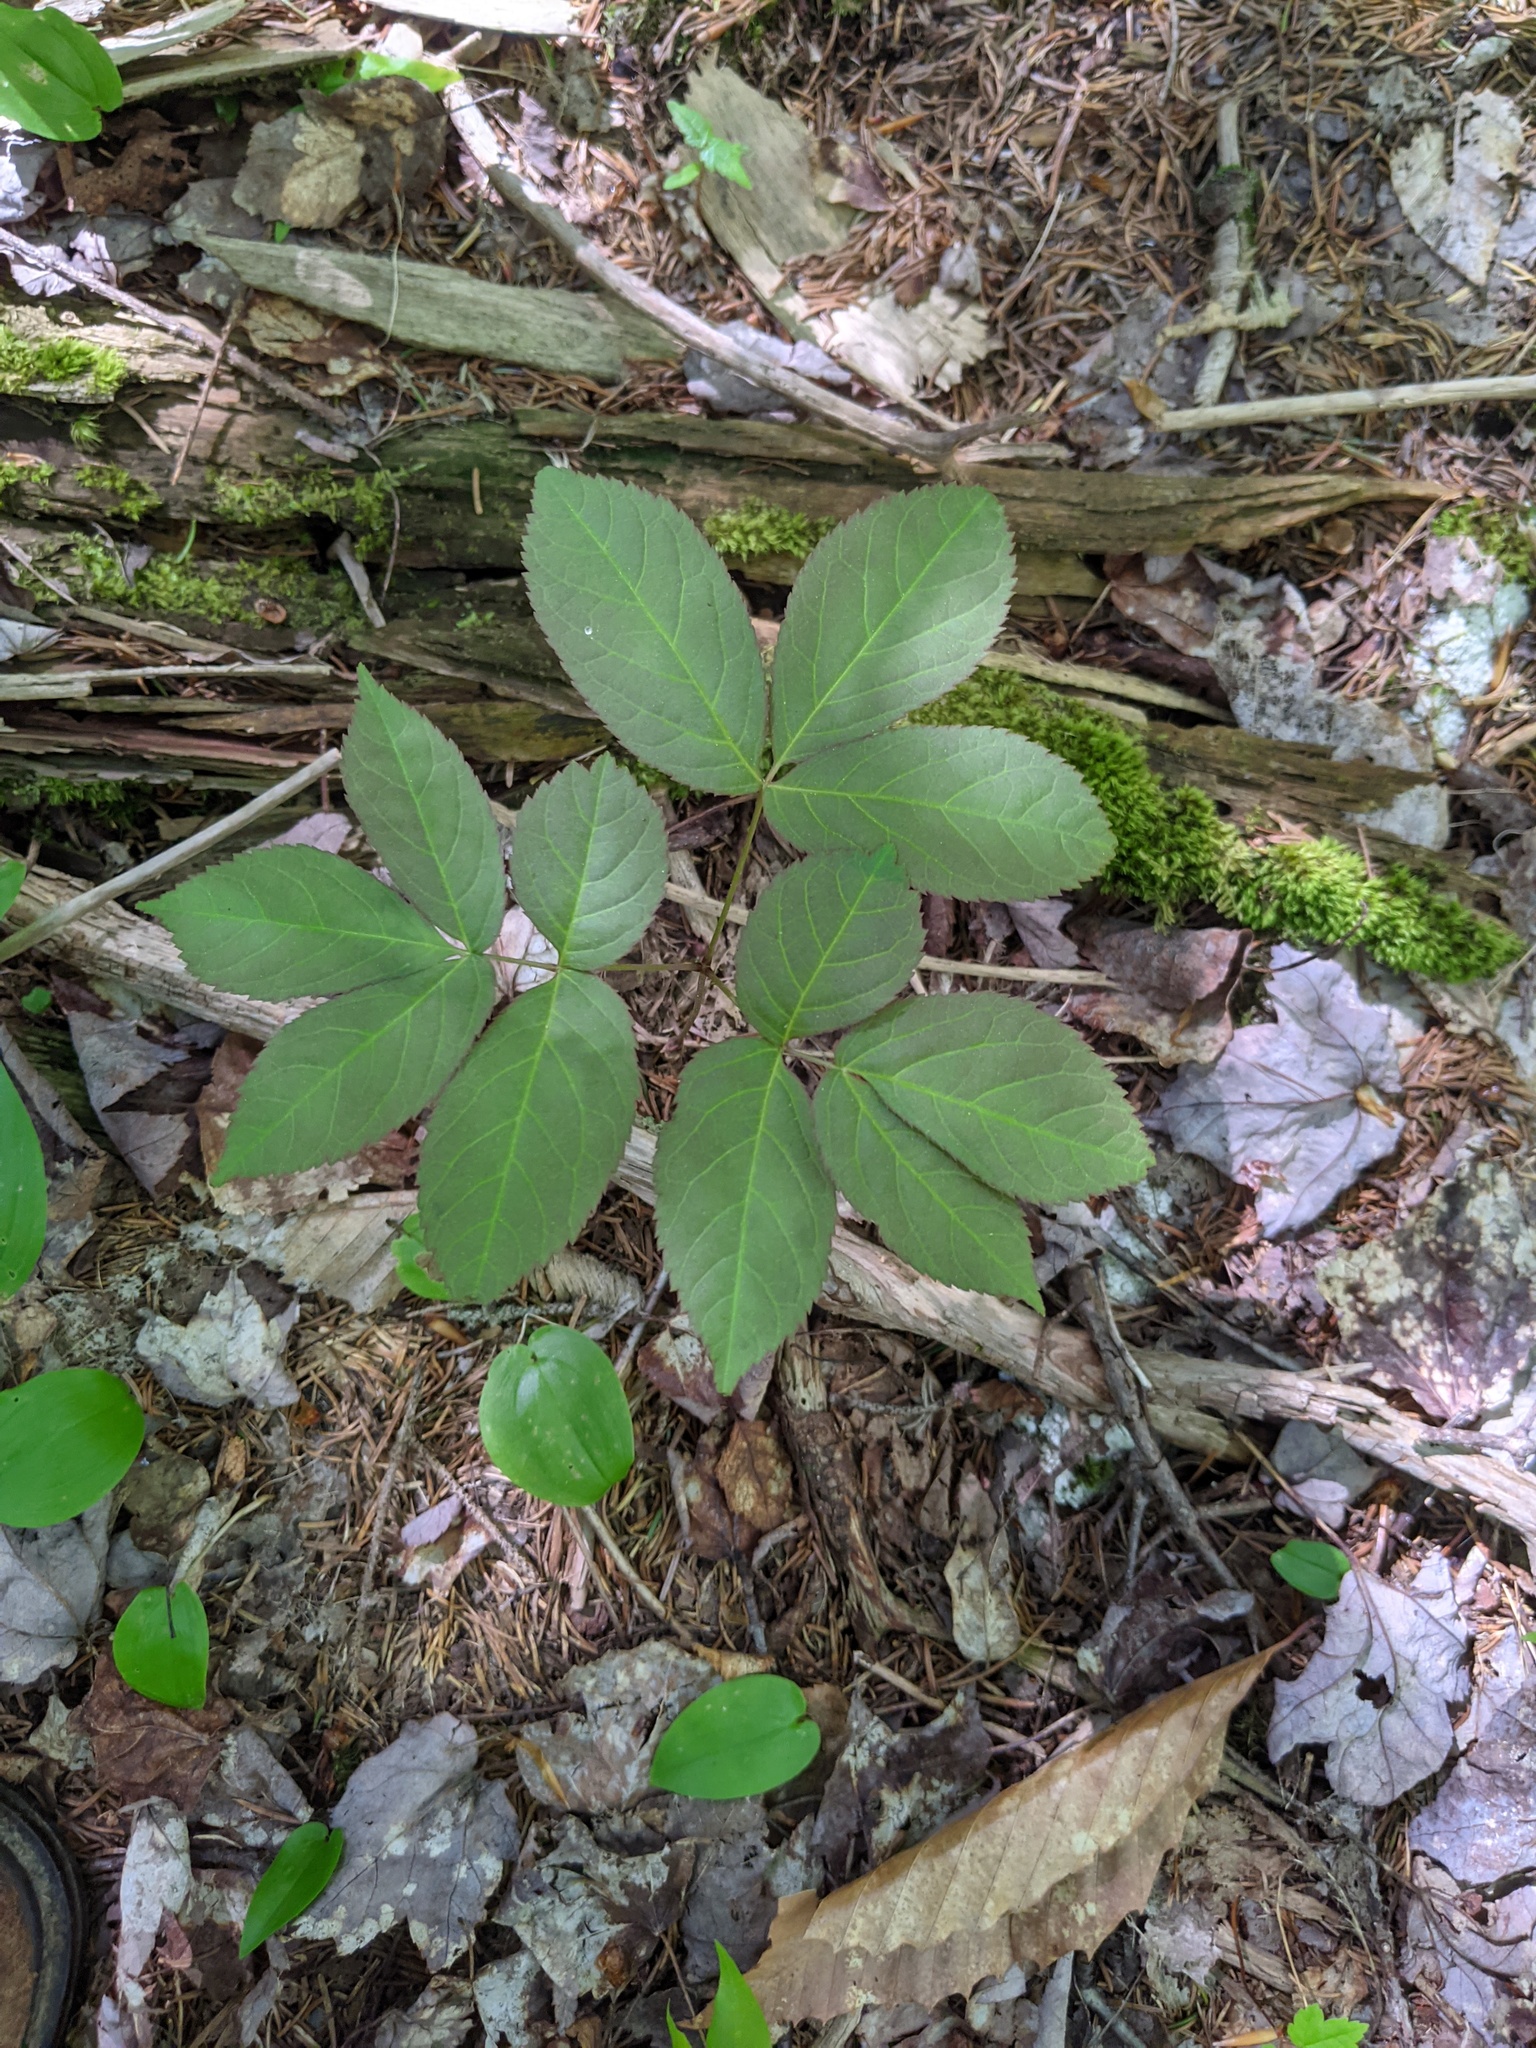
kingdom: Plantae
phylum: Tracheophyta
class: Magnoliopsida
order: Apiales
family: Araliaceae
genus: Aralia
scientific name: Aralia nudicaulis
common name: Wild sarsaparilla
